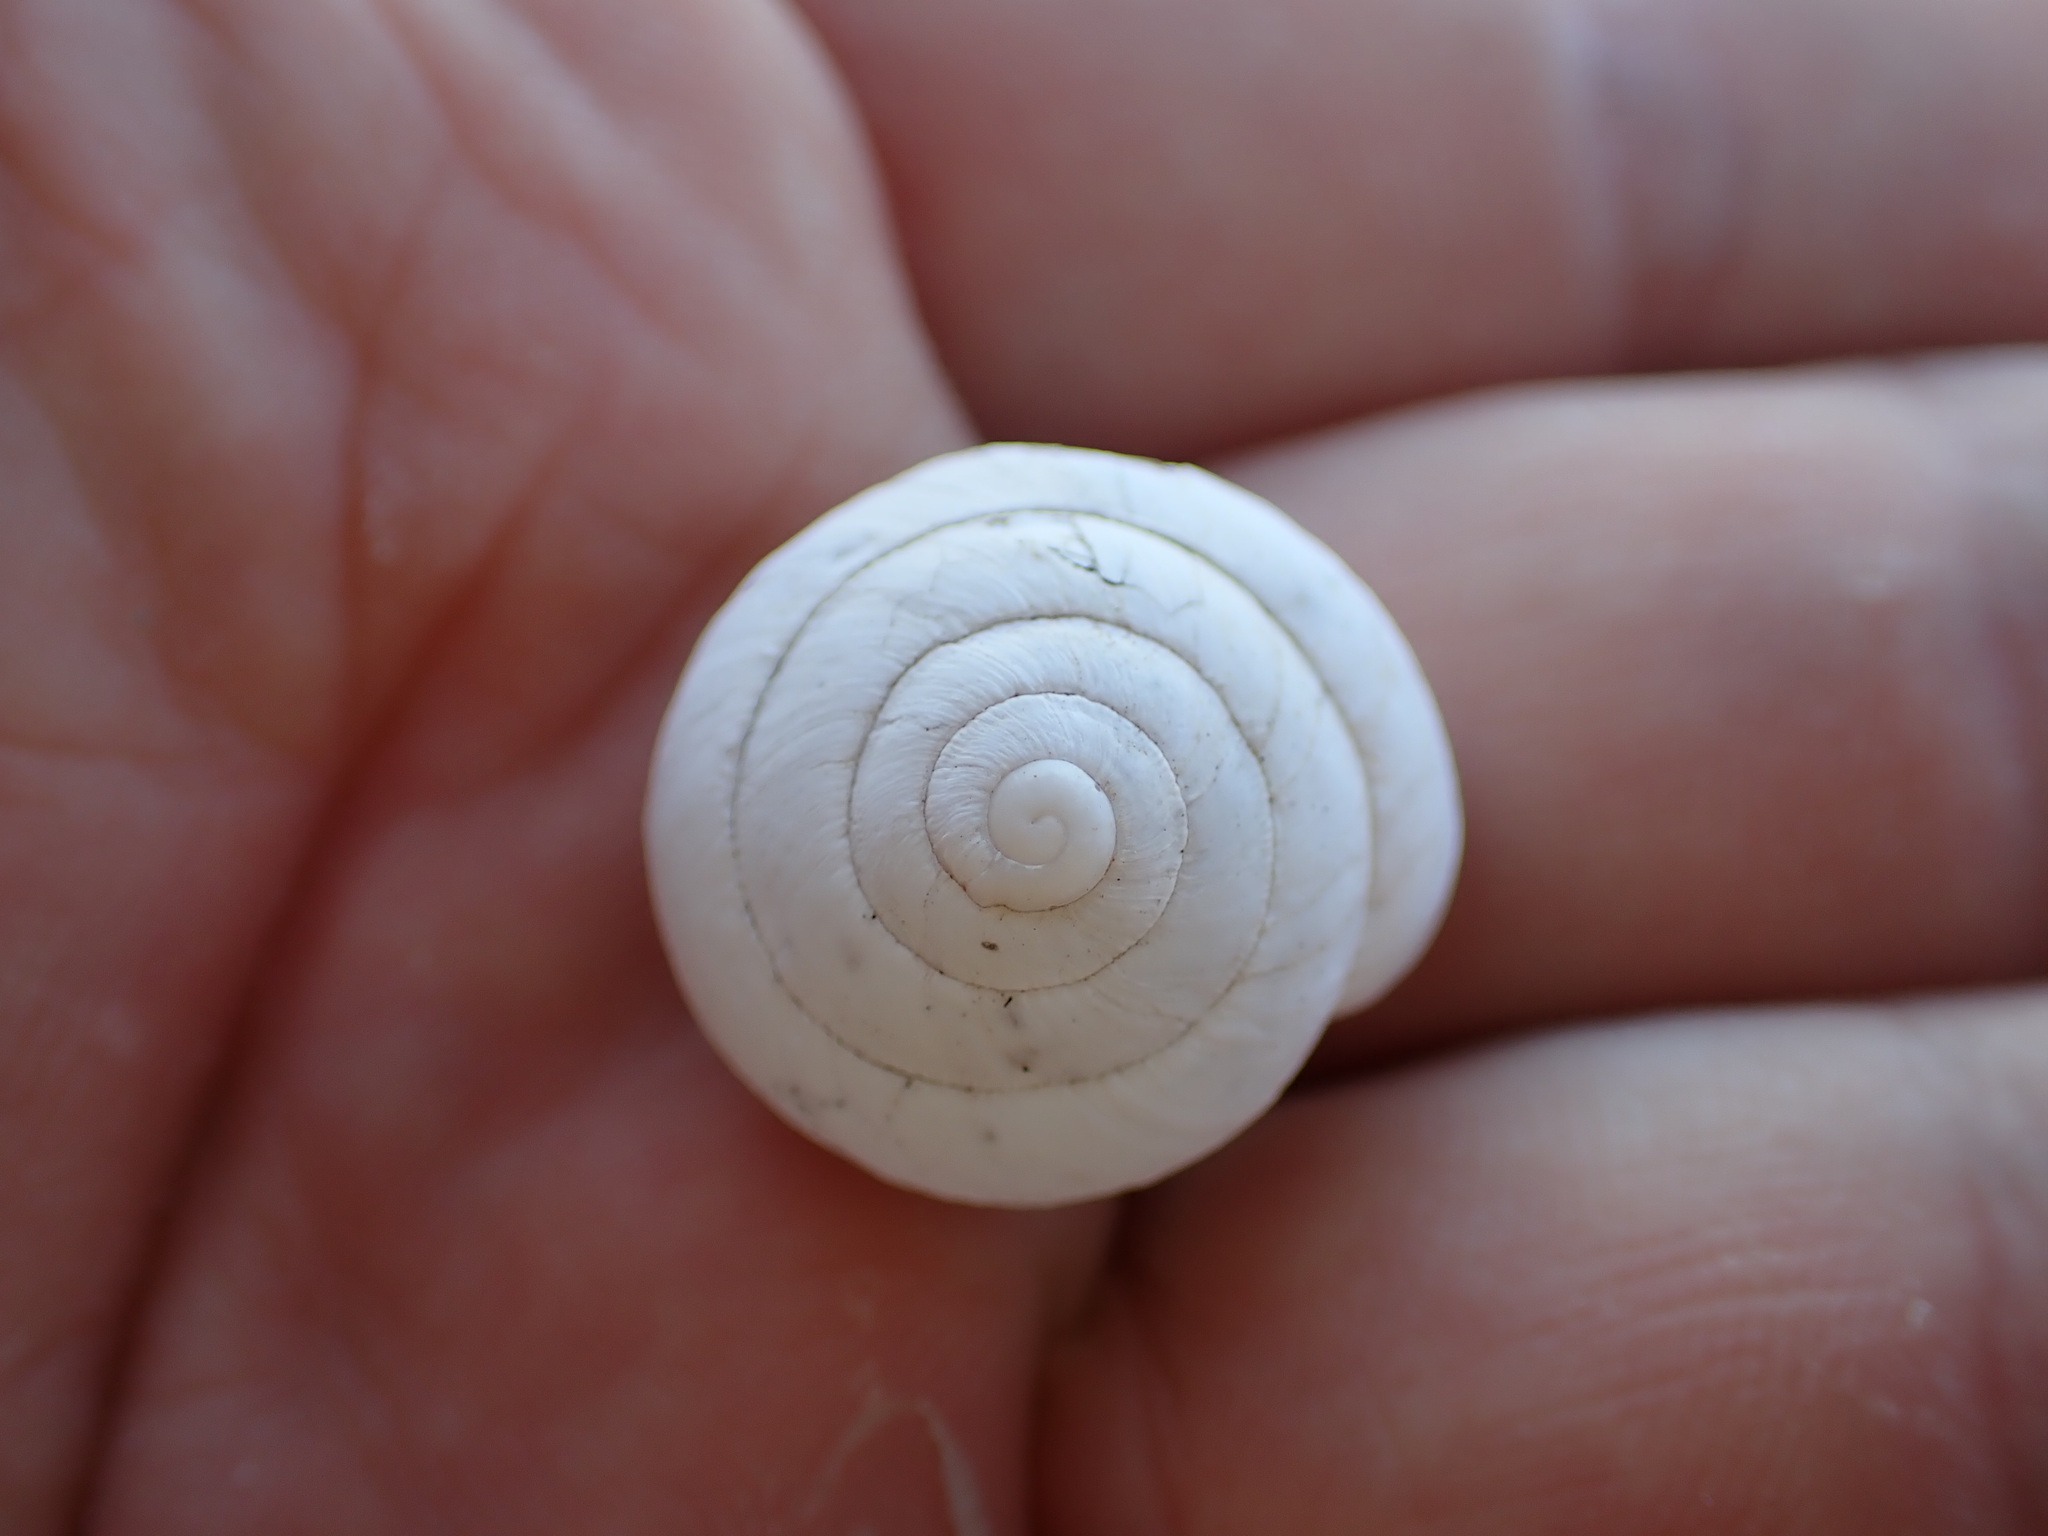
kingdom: Animalia
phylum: Mollusca
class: Gastropoda
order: Stylommatophora
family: Sphincterochilidae
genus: Sphincterochila
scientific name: Sphincterochila candidissima
